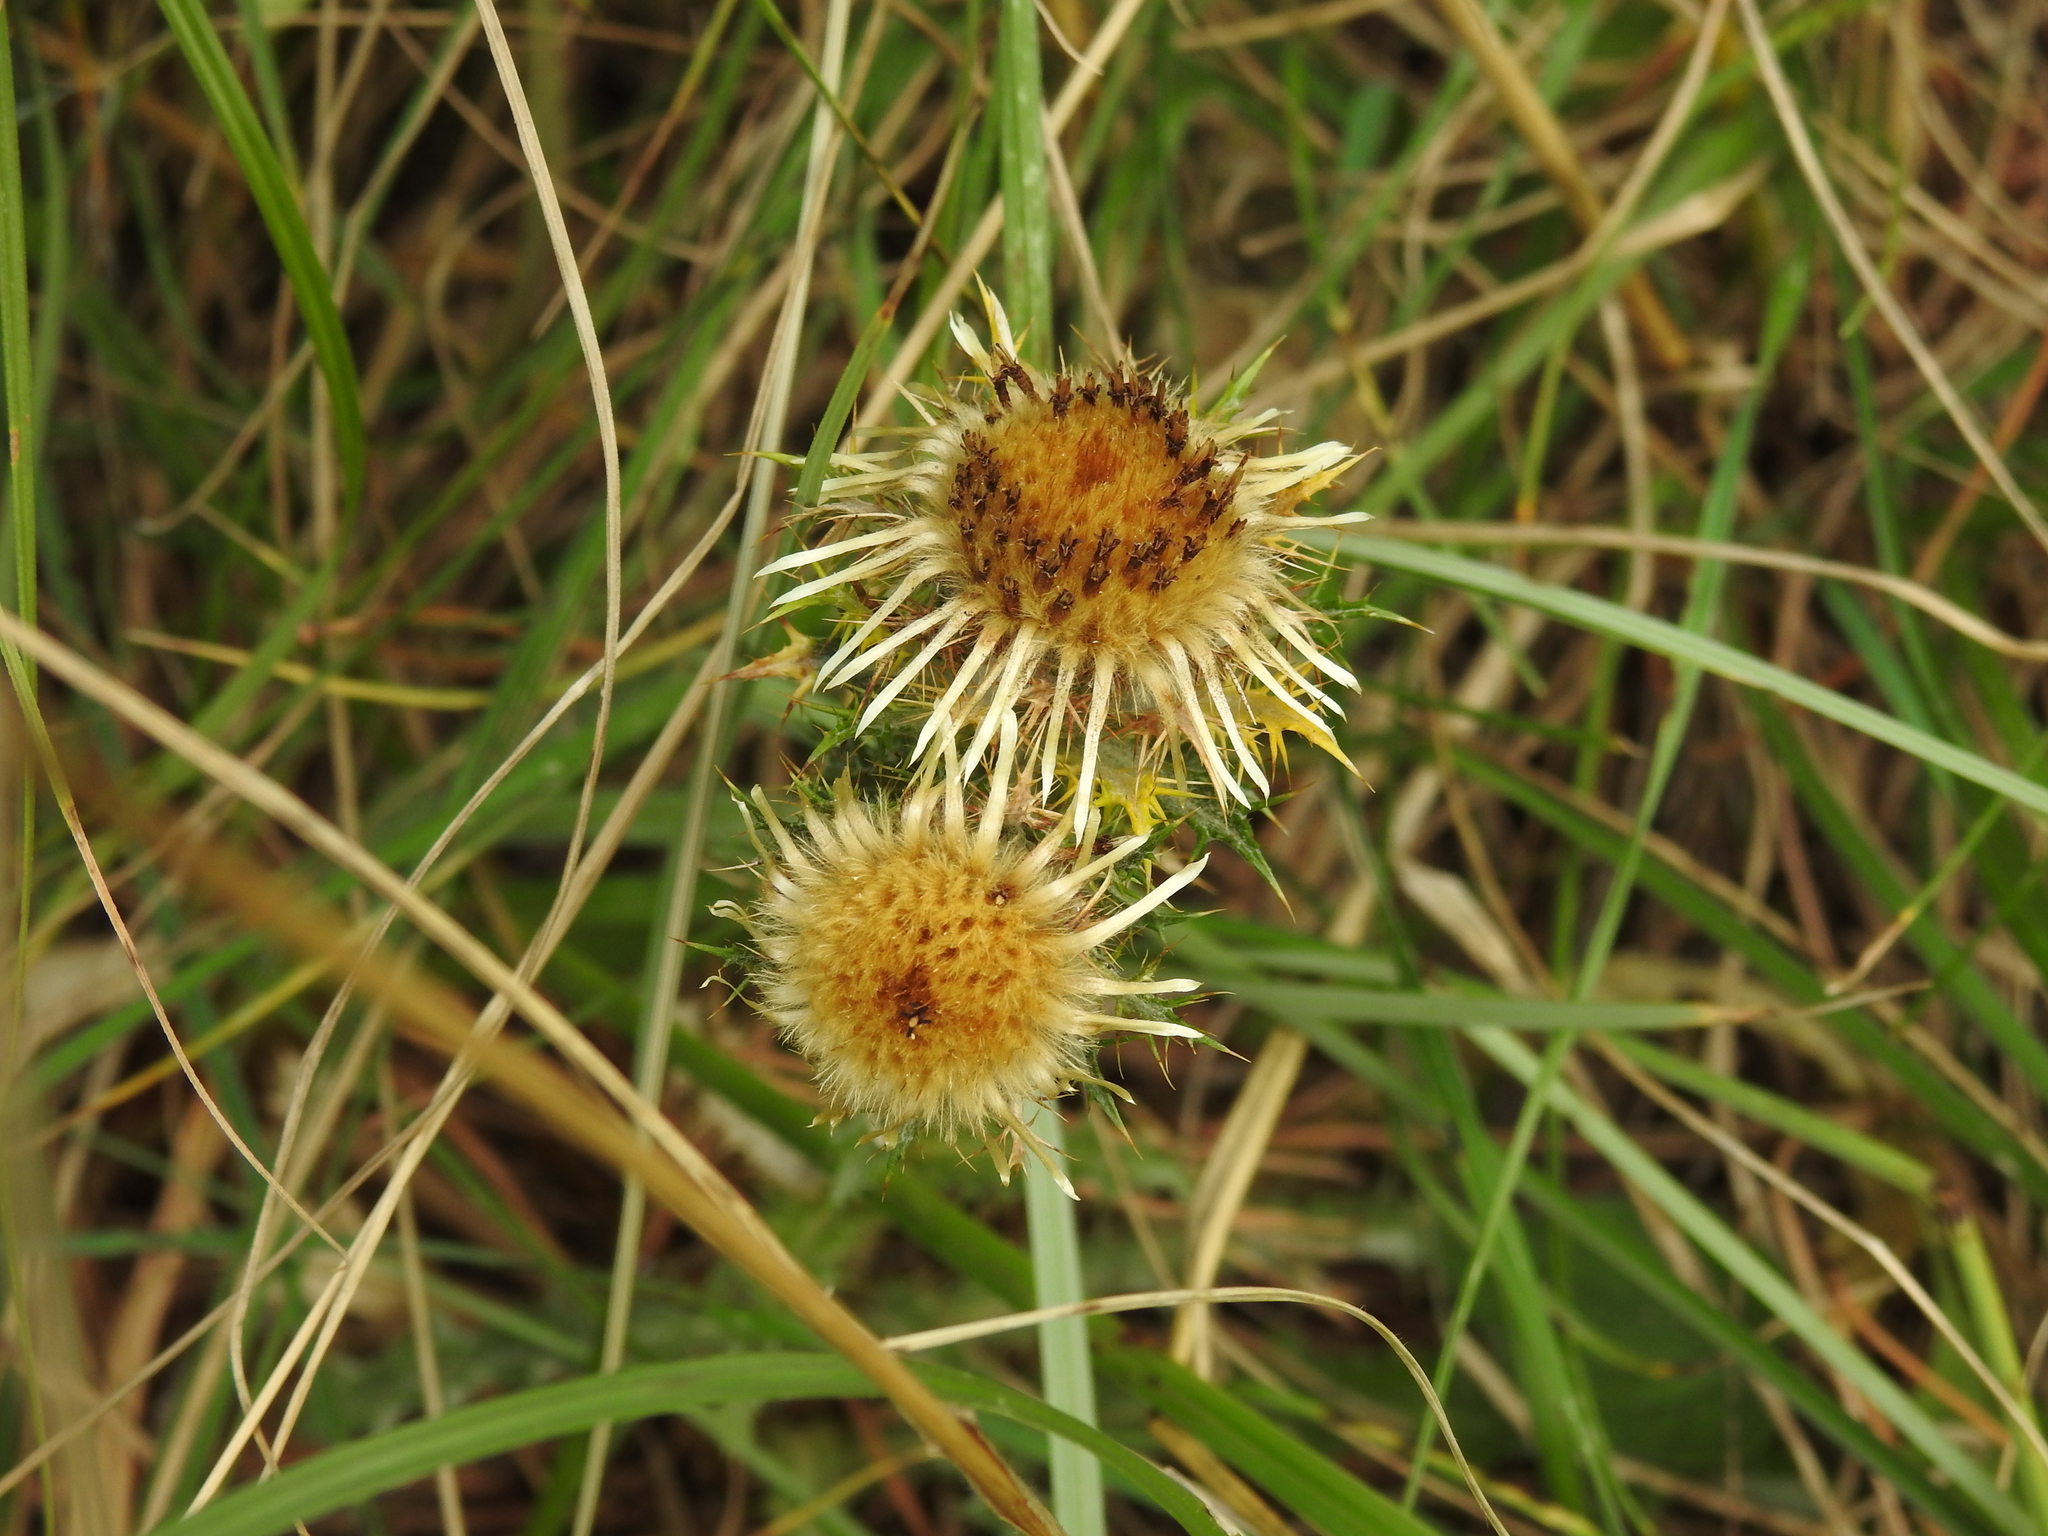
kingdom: Plantae
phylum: Tracheophyta
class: Magnoliopsida
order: Asterales
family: Asteraceae
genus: Carlina
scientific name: Carlina vulgaris
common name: Carline thistle
